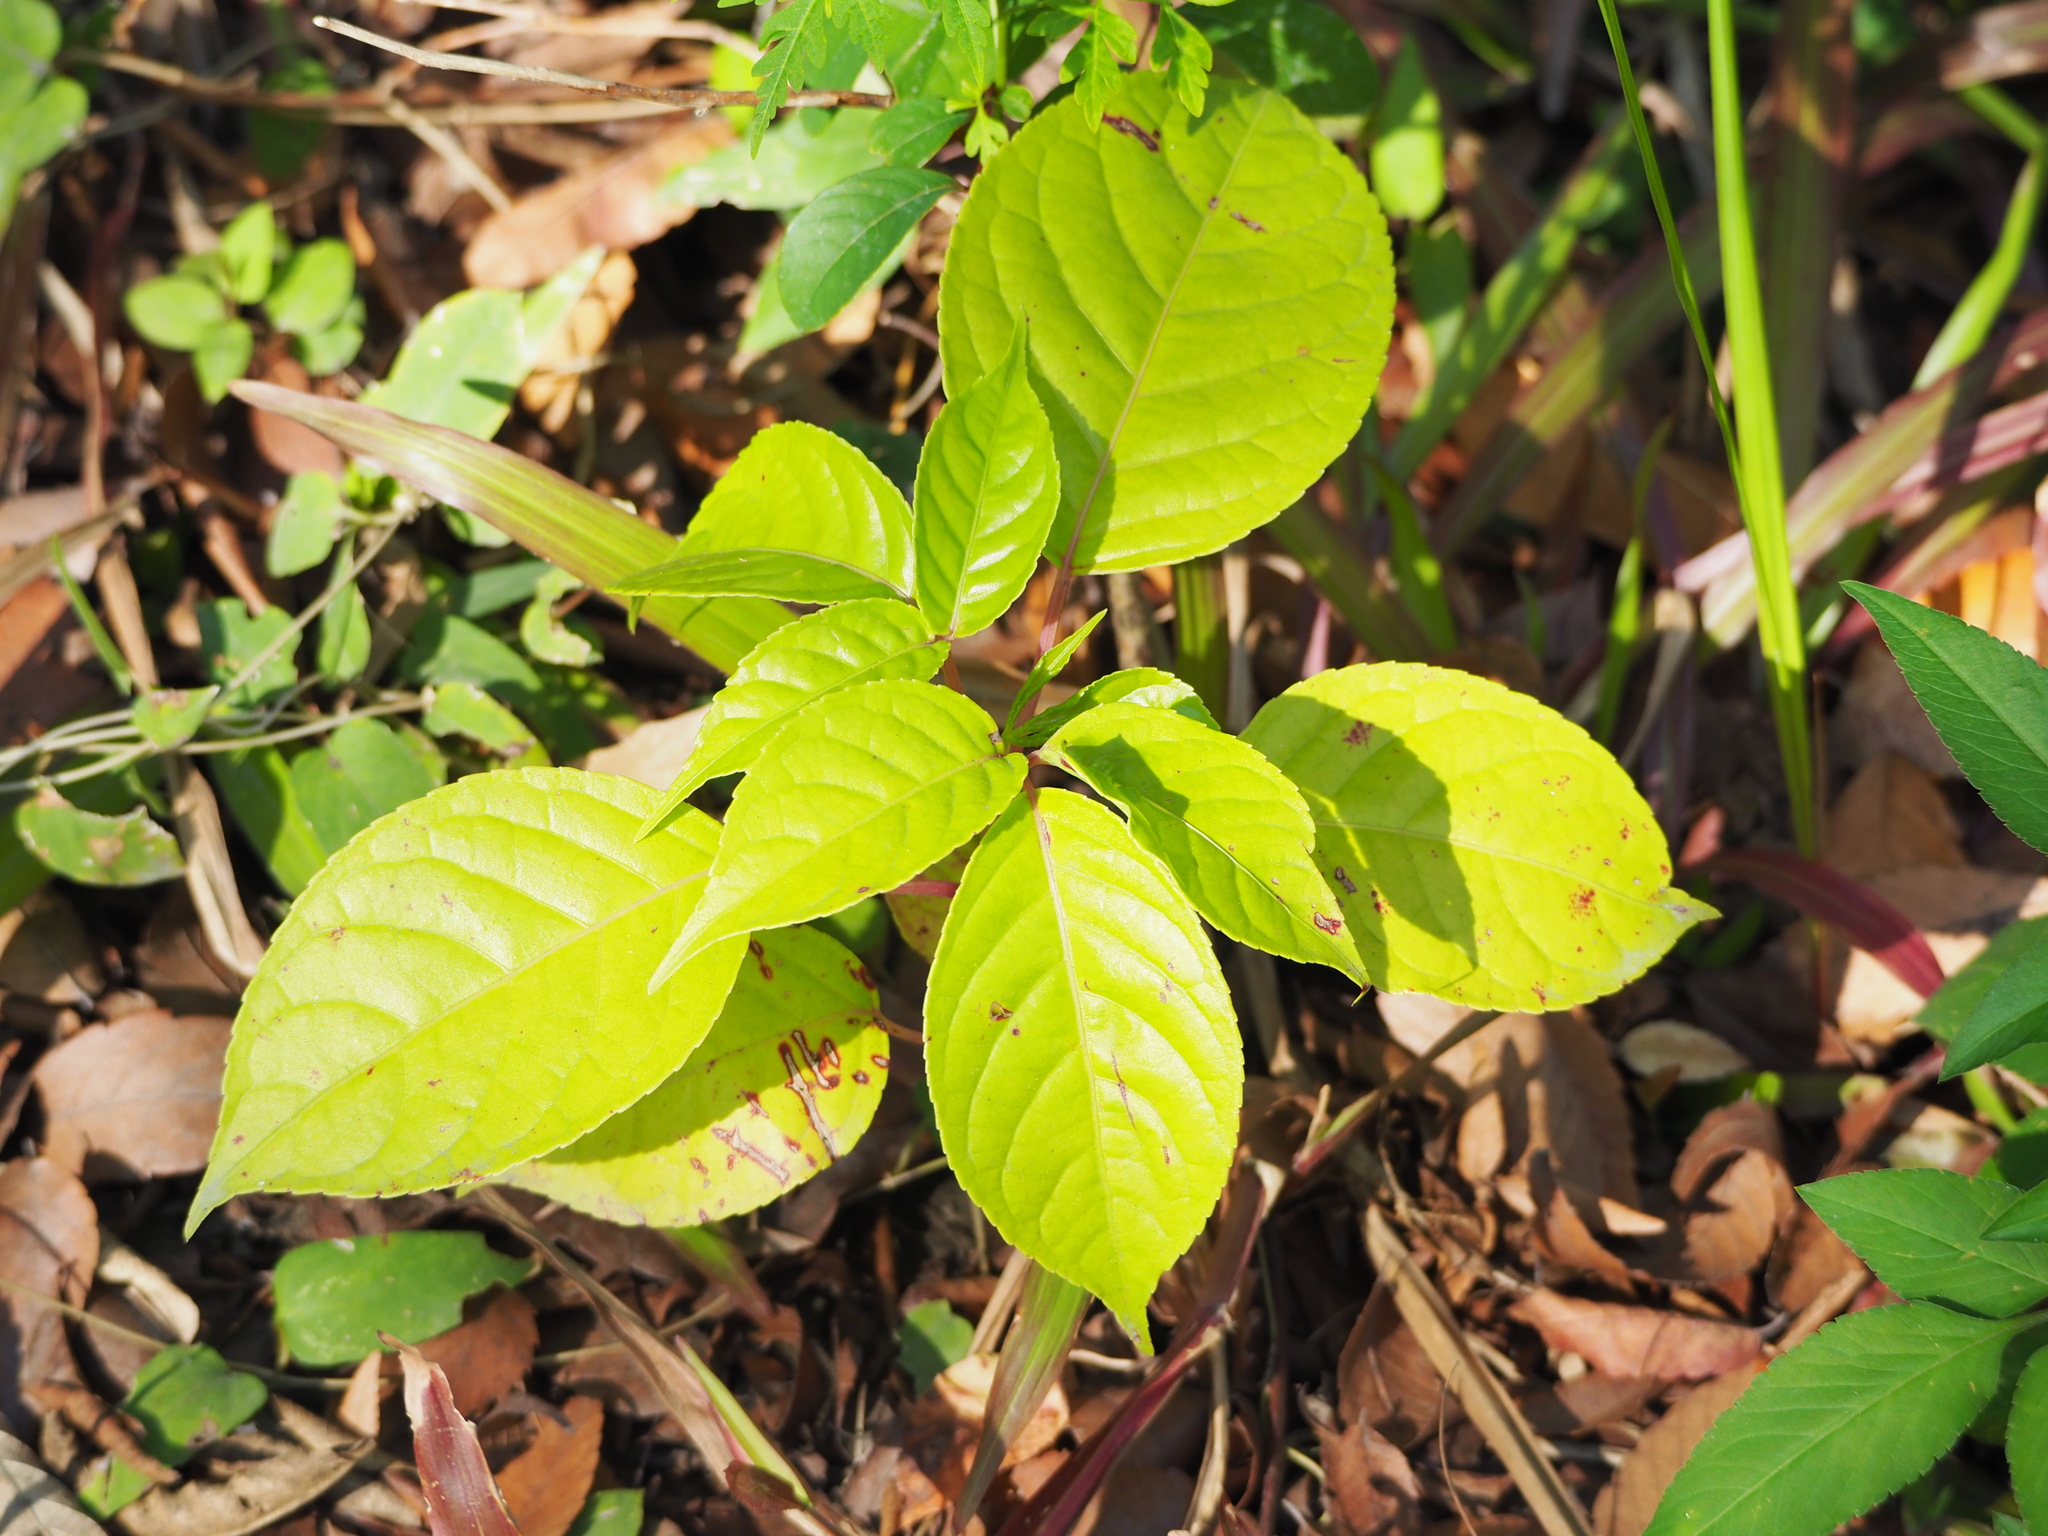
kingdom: Plantae
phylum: Tracheophyta
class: Magnoliopsida
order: Malpighiales
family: Phyllanthaceae
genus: Bischofia
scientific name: Bischofia javanica
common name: Javanese bishopwood
